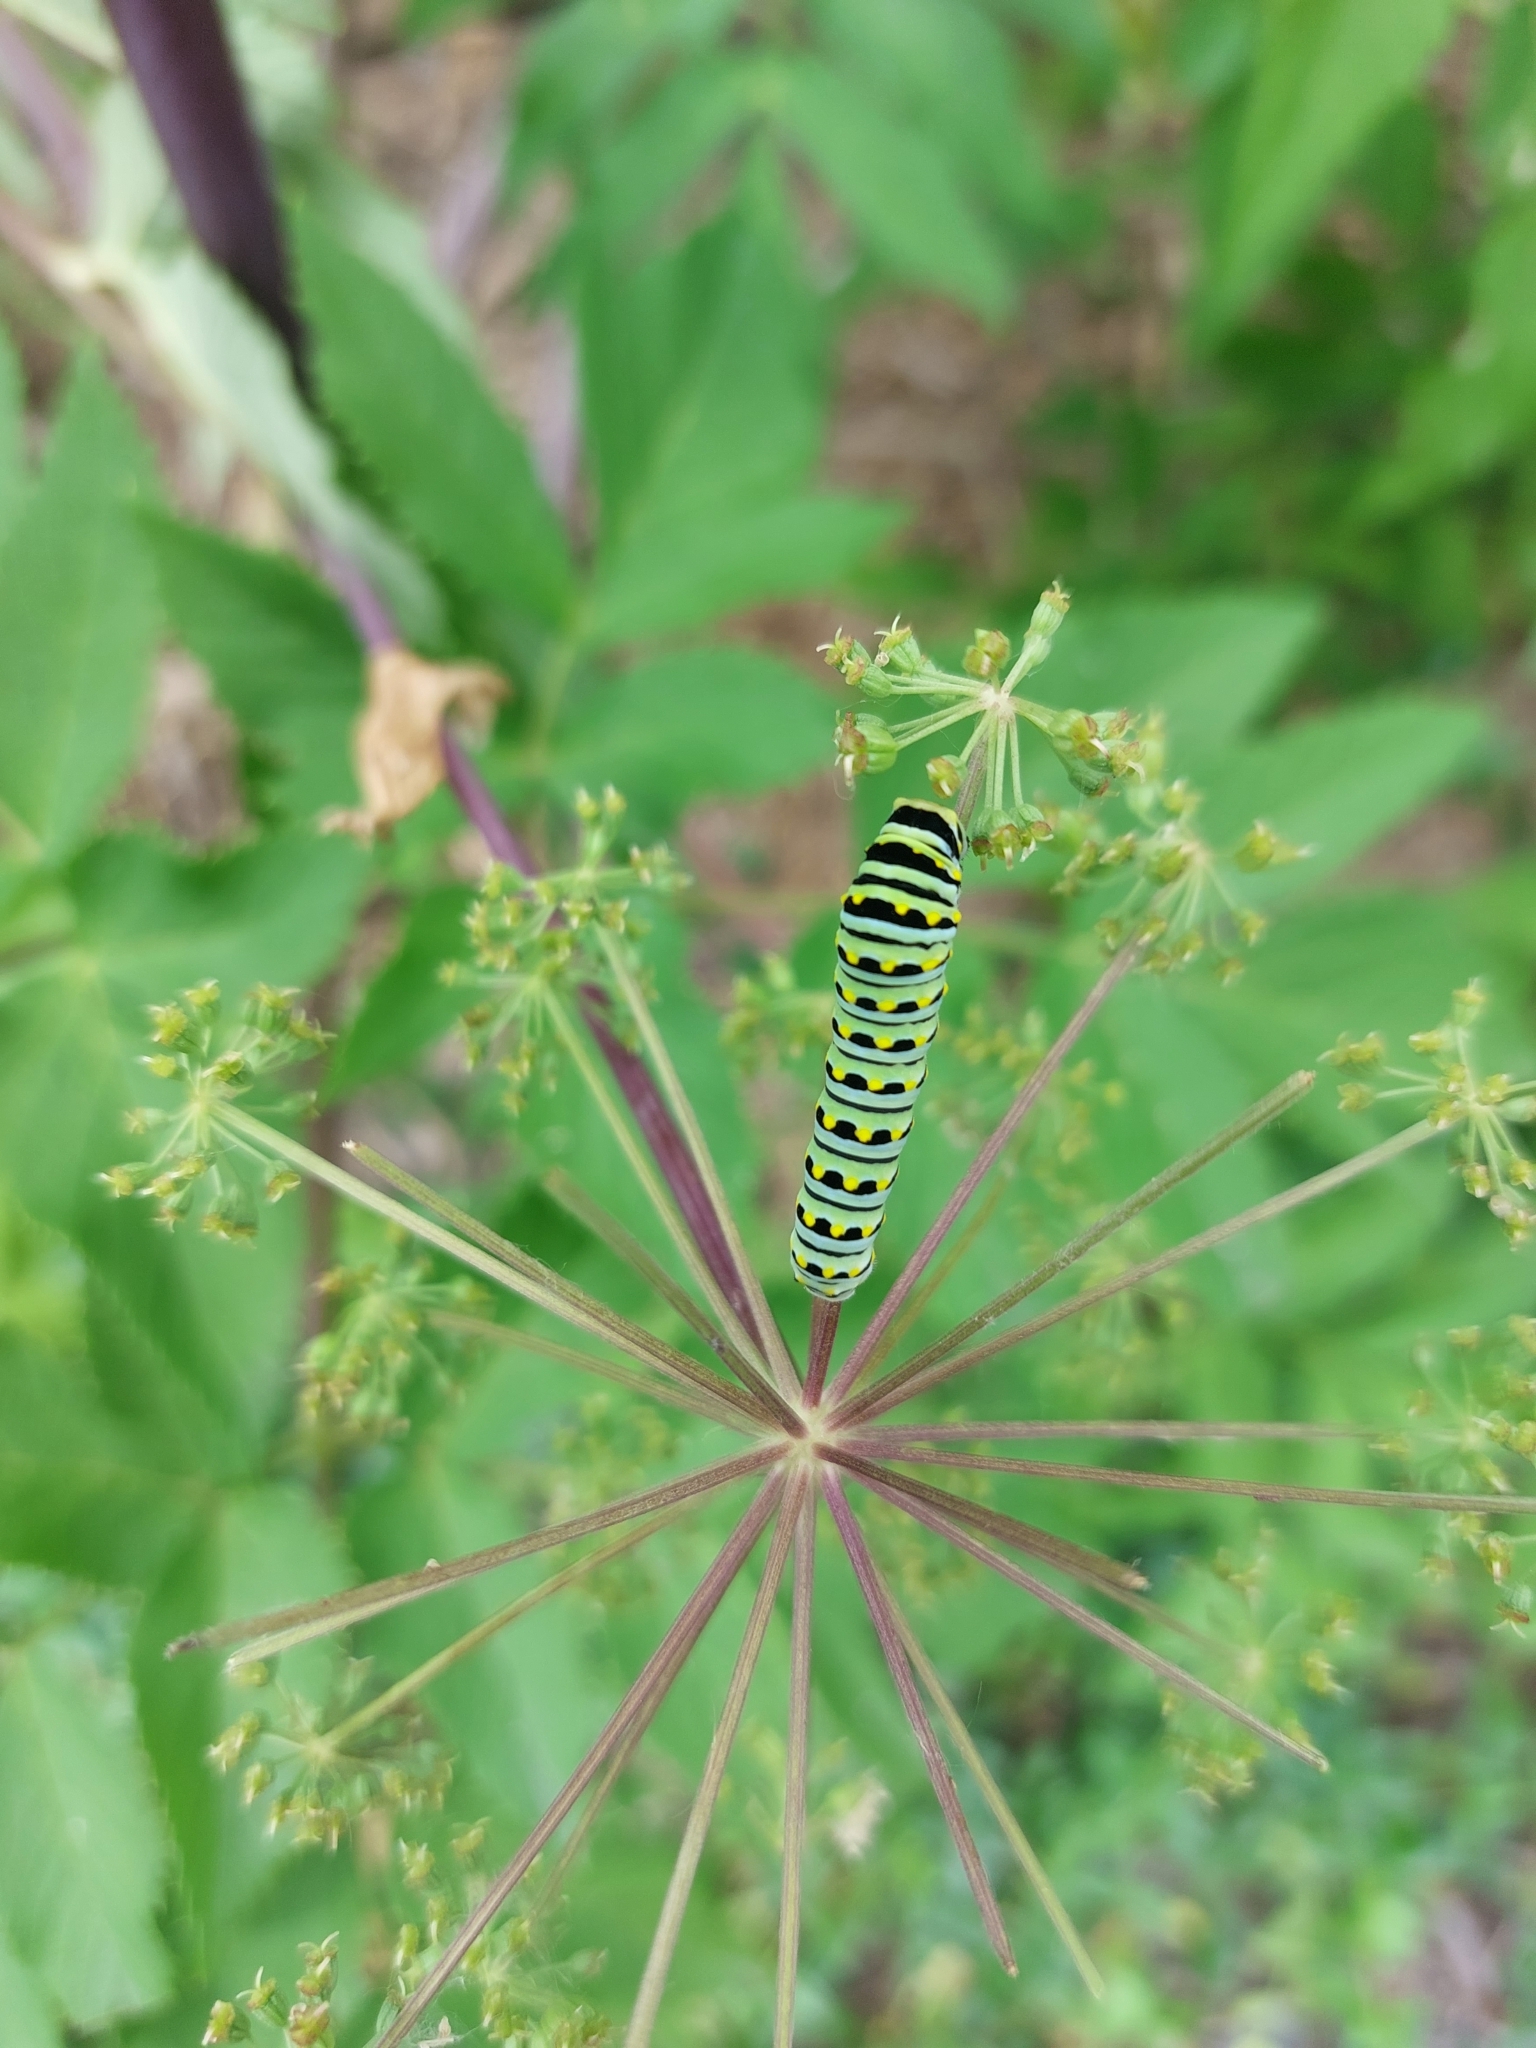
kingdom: Animalia
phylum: Arthropoda
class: Insecta
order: Lepidoptera
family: Papilionidae
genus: Papilio
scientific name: Papilio polyxenes
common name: Black swallowtail
